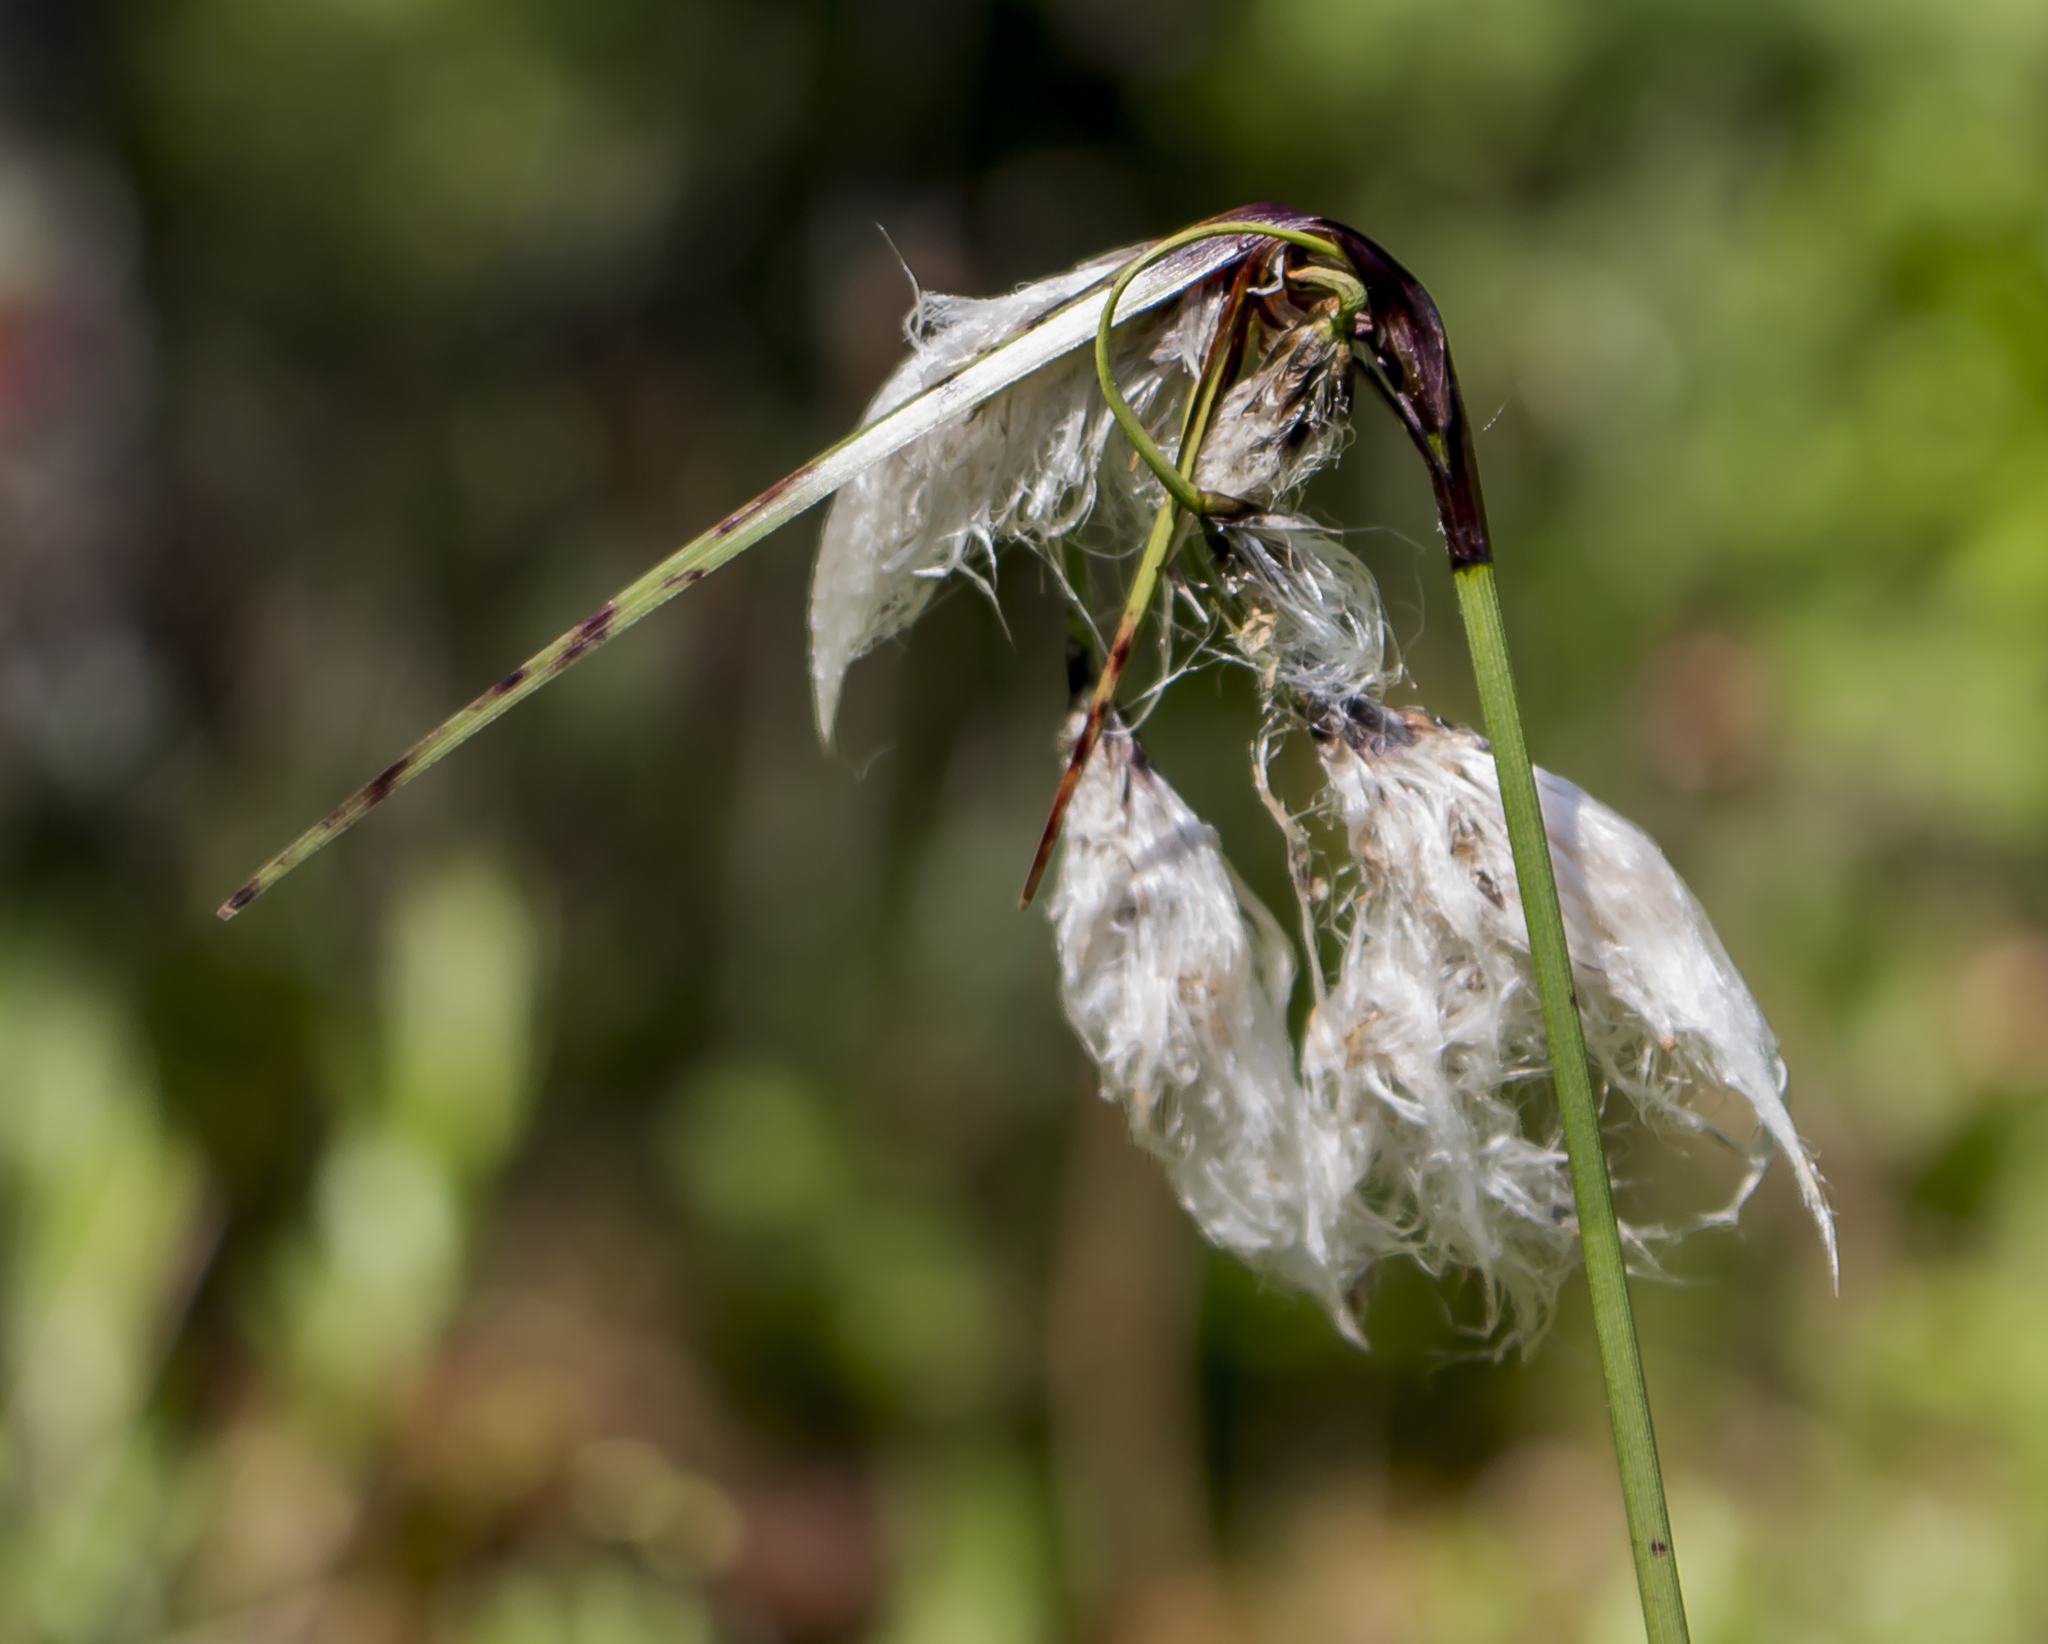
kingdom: Plantae
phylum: Tracheophyta
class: Liliopsida
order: Poales
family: Cyperaceae
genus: Eriophorum
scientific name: Eriophorum angustifolium
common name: Common cottongrass
